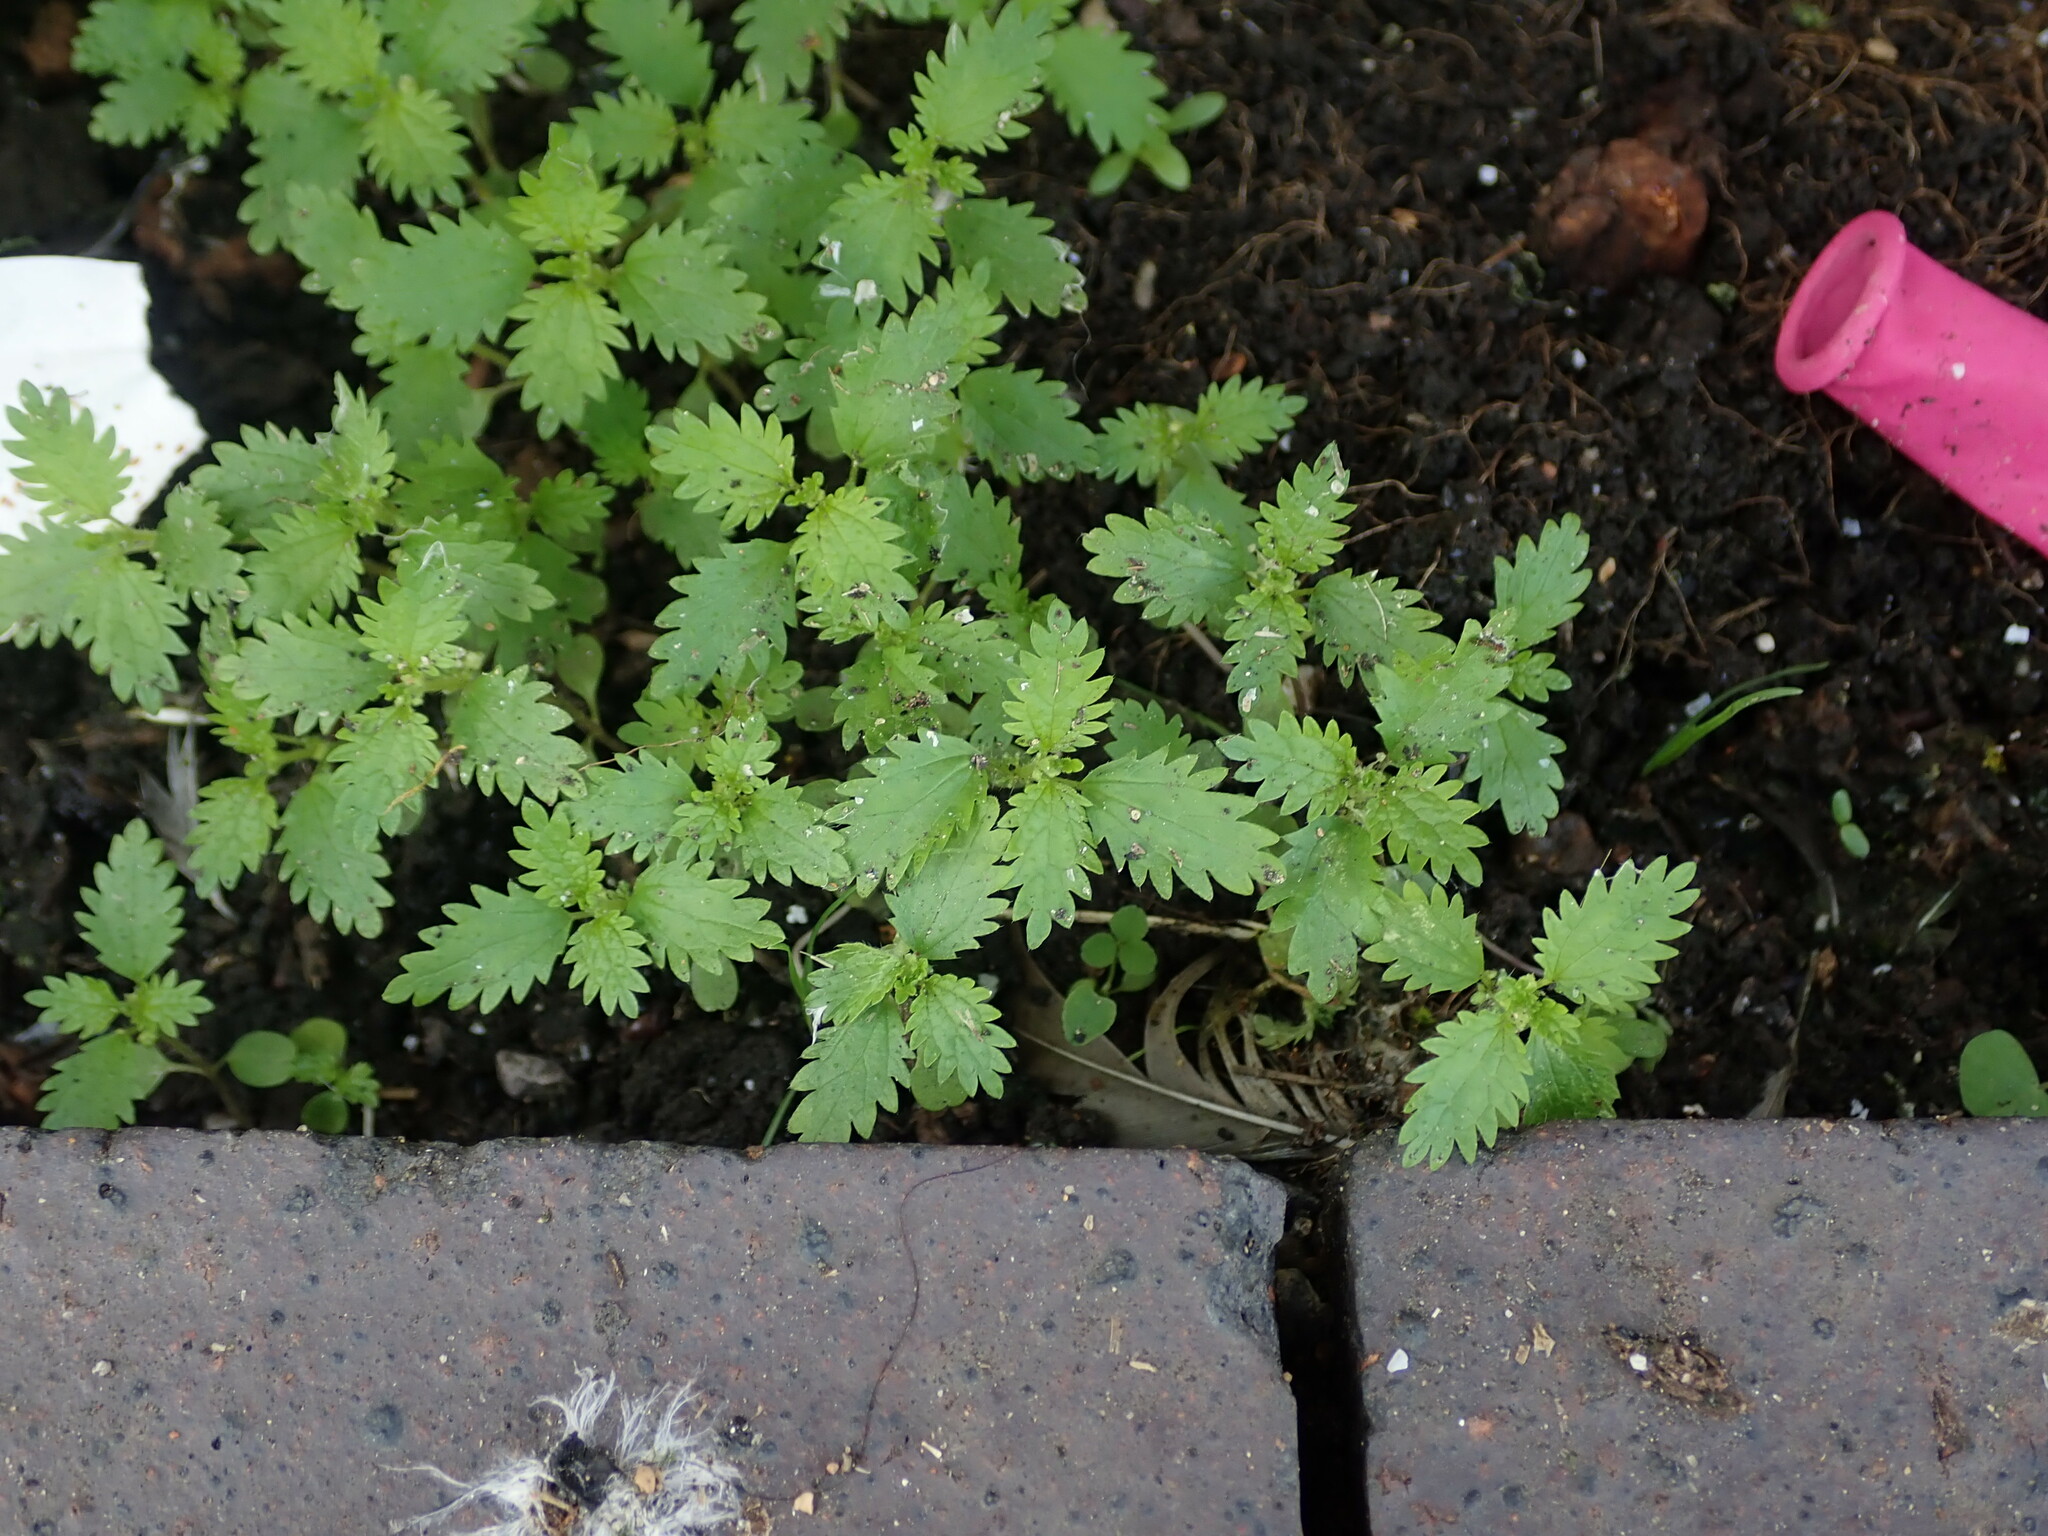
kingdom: Plantae
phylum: Tracheophyta
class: Magnoliopsida
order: Rosales
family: Urticaceae
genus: Urtica
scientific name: Urtica urens
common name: Dwarf nettle
